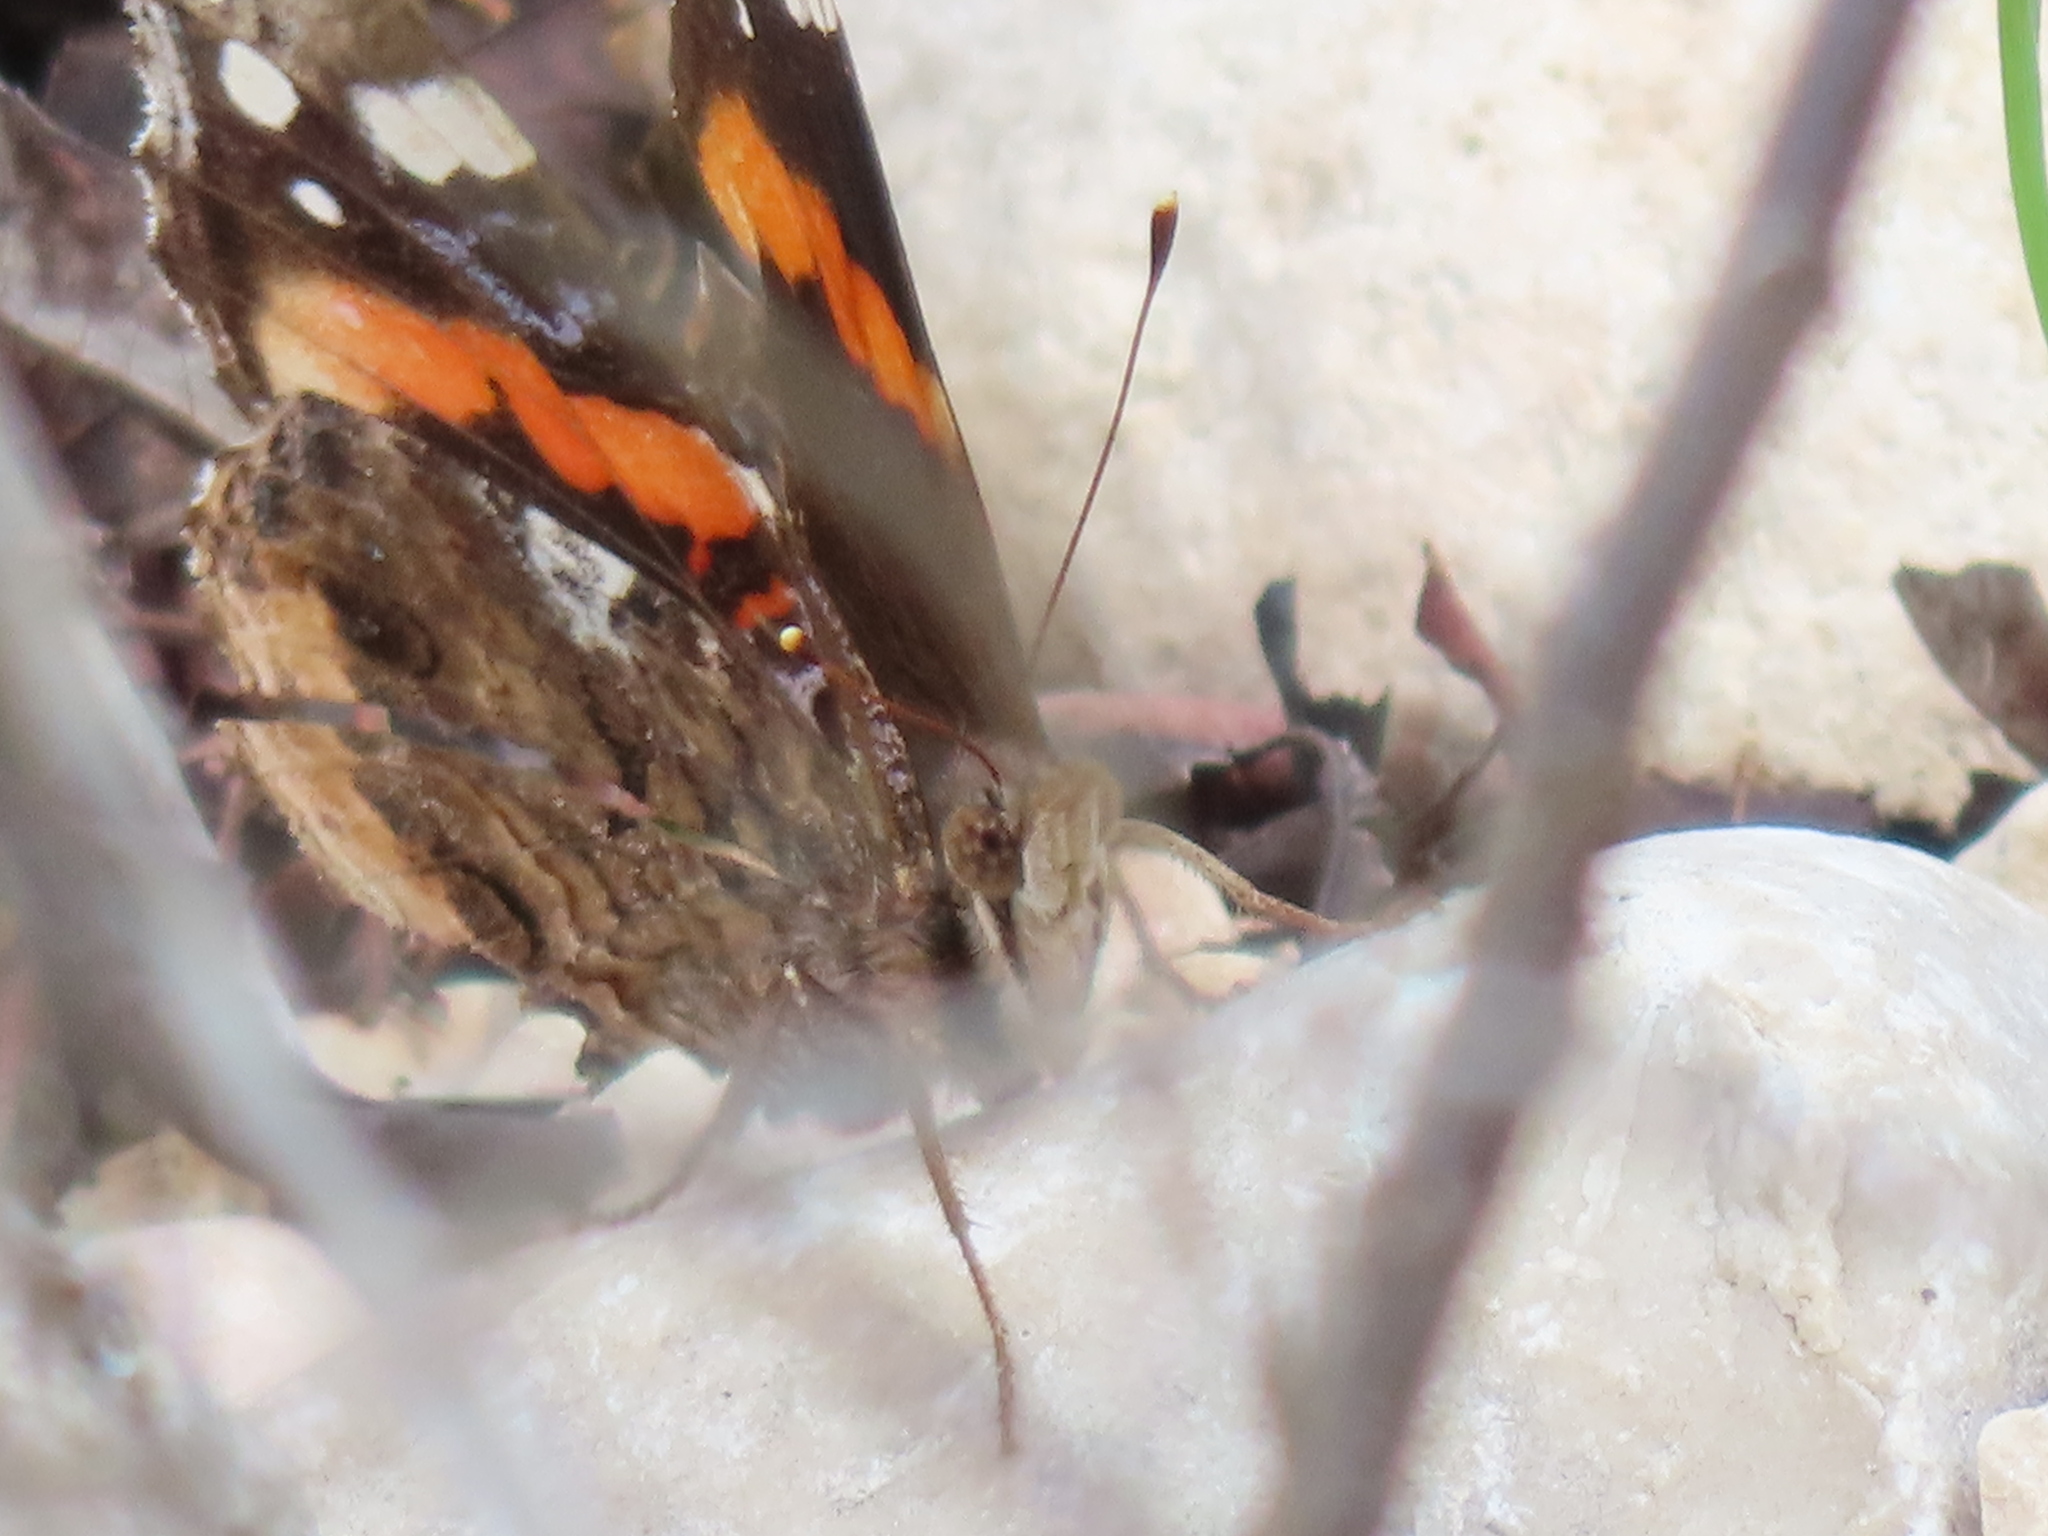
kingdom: Animalia
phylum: Arthropoda
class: Insecta
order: Lepidoptera
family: Nymphalidae
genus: Vanessa
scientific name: Vanessa atalanta
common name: Red admiral
